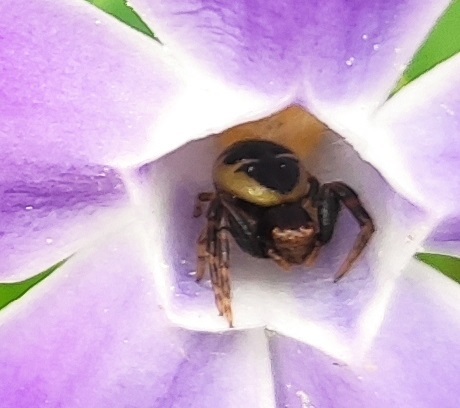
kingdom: Animalia
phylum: Arthropoda
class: Arachnida
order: Araneae
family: Thomisidae
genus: Synema
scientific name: Synema globosum
